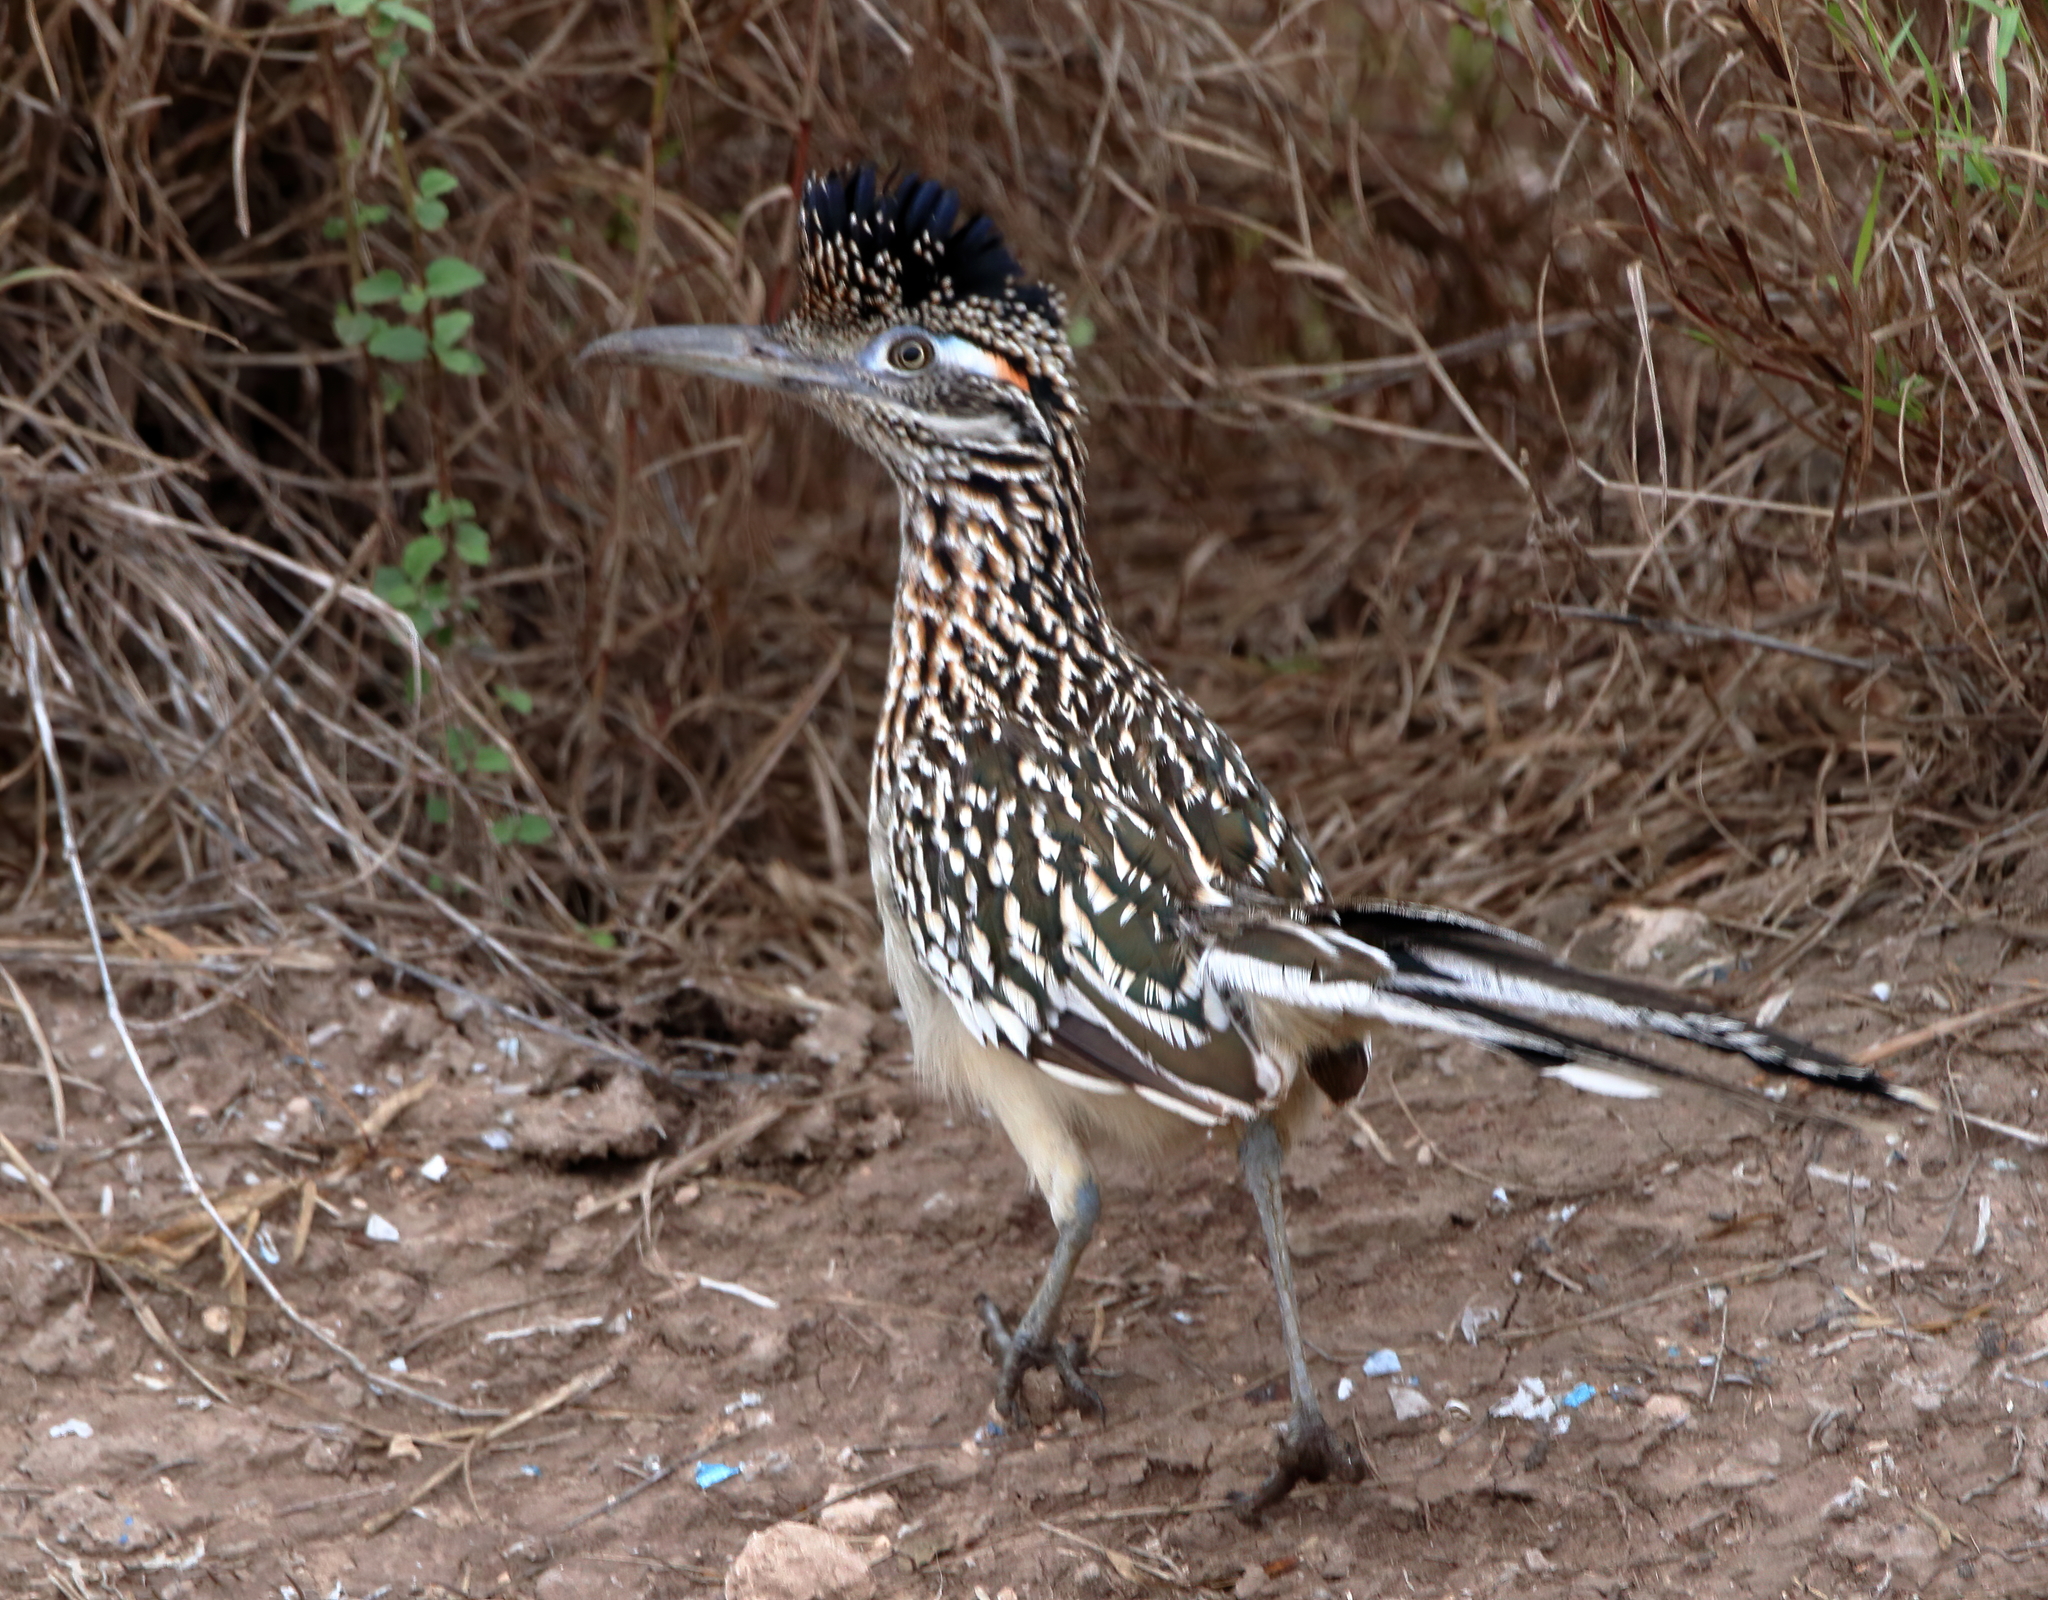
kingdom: Animalia
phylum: Chordata
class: Aves
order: Cuculiformes
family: Cuculidae
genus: Geococcyx
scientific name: Geococcyx californianus
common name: Greater roadrunner
